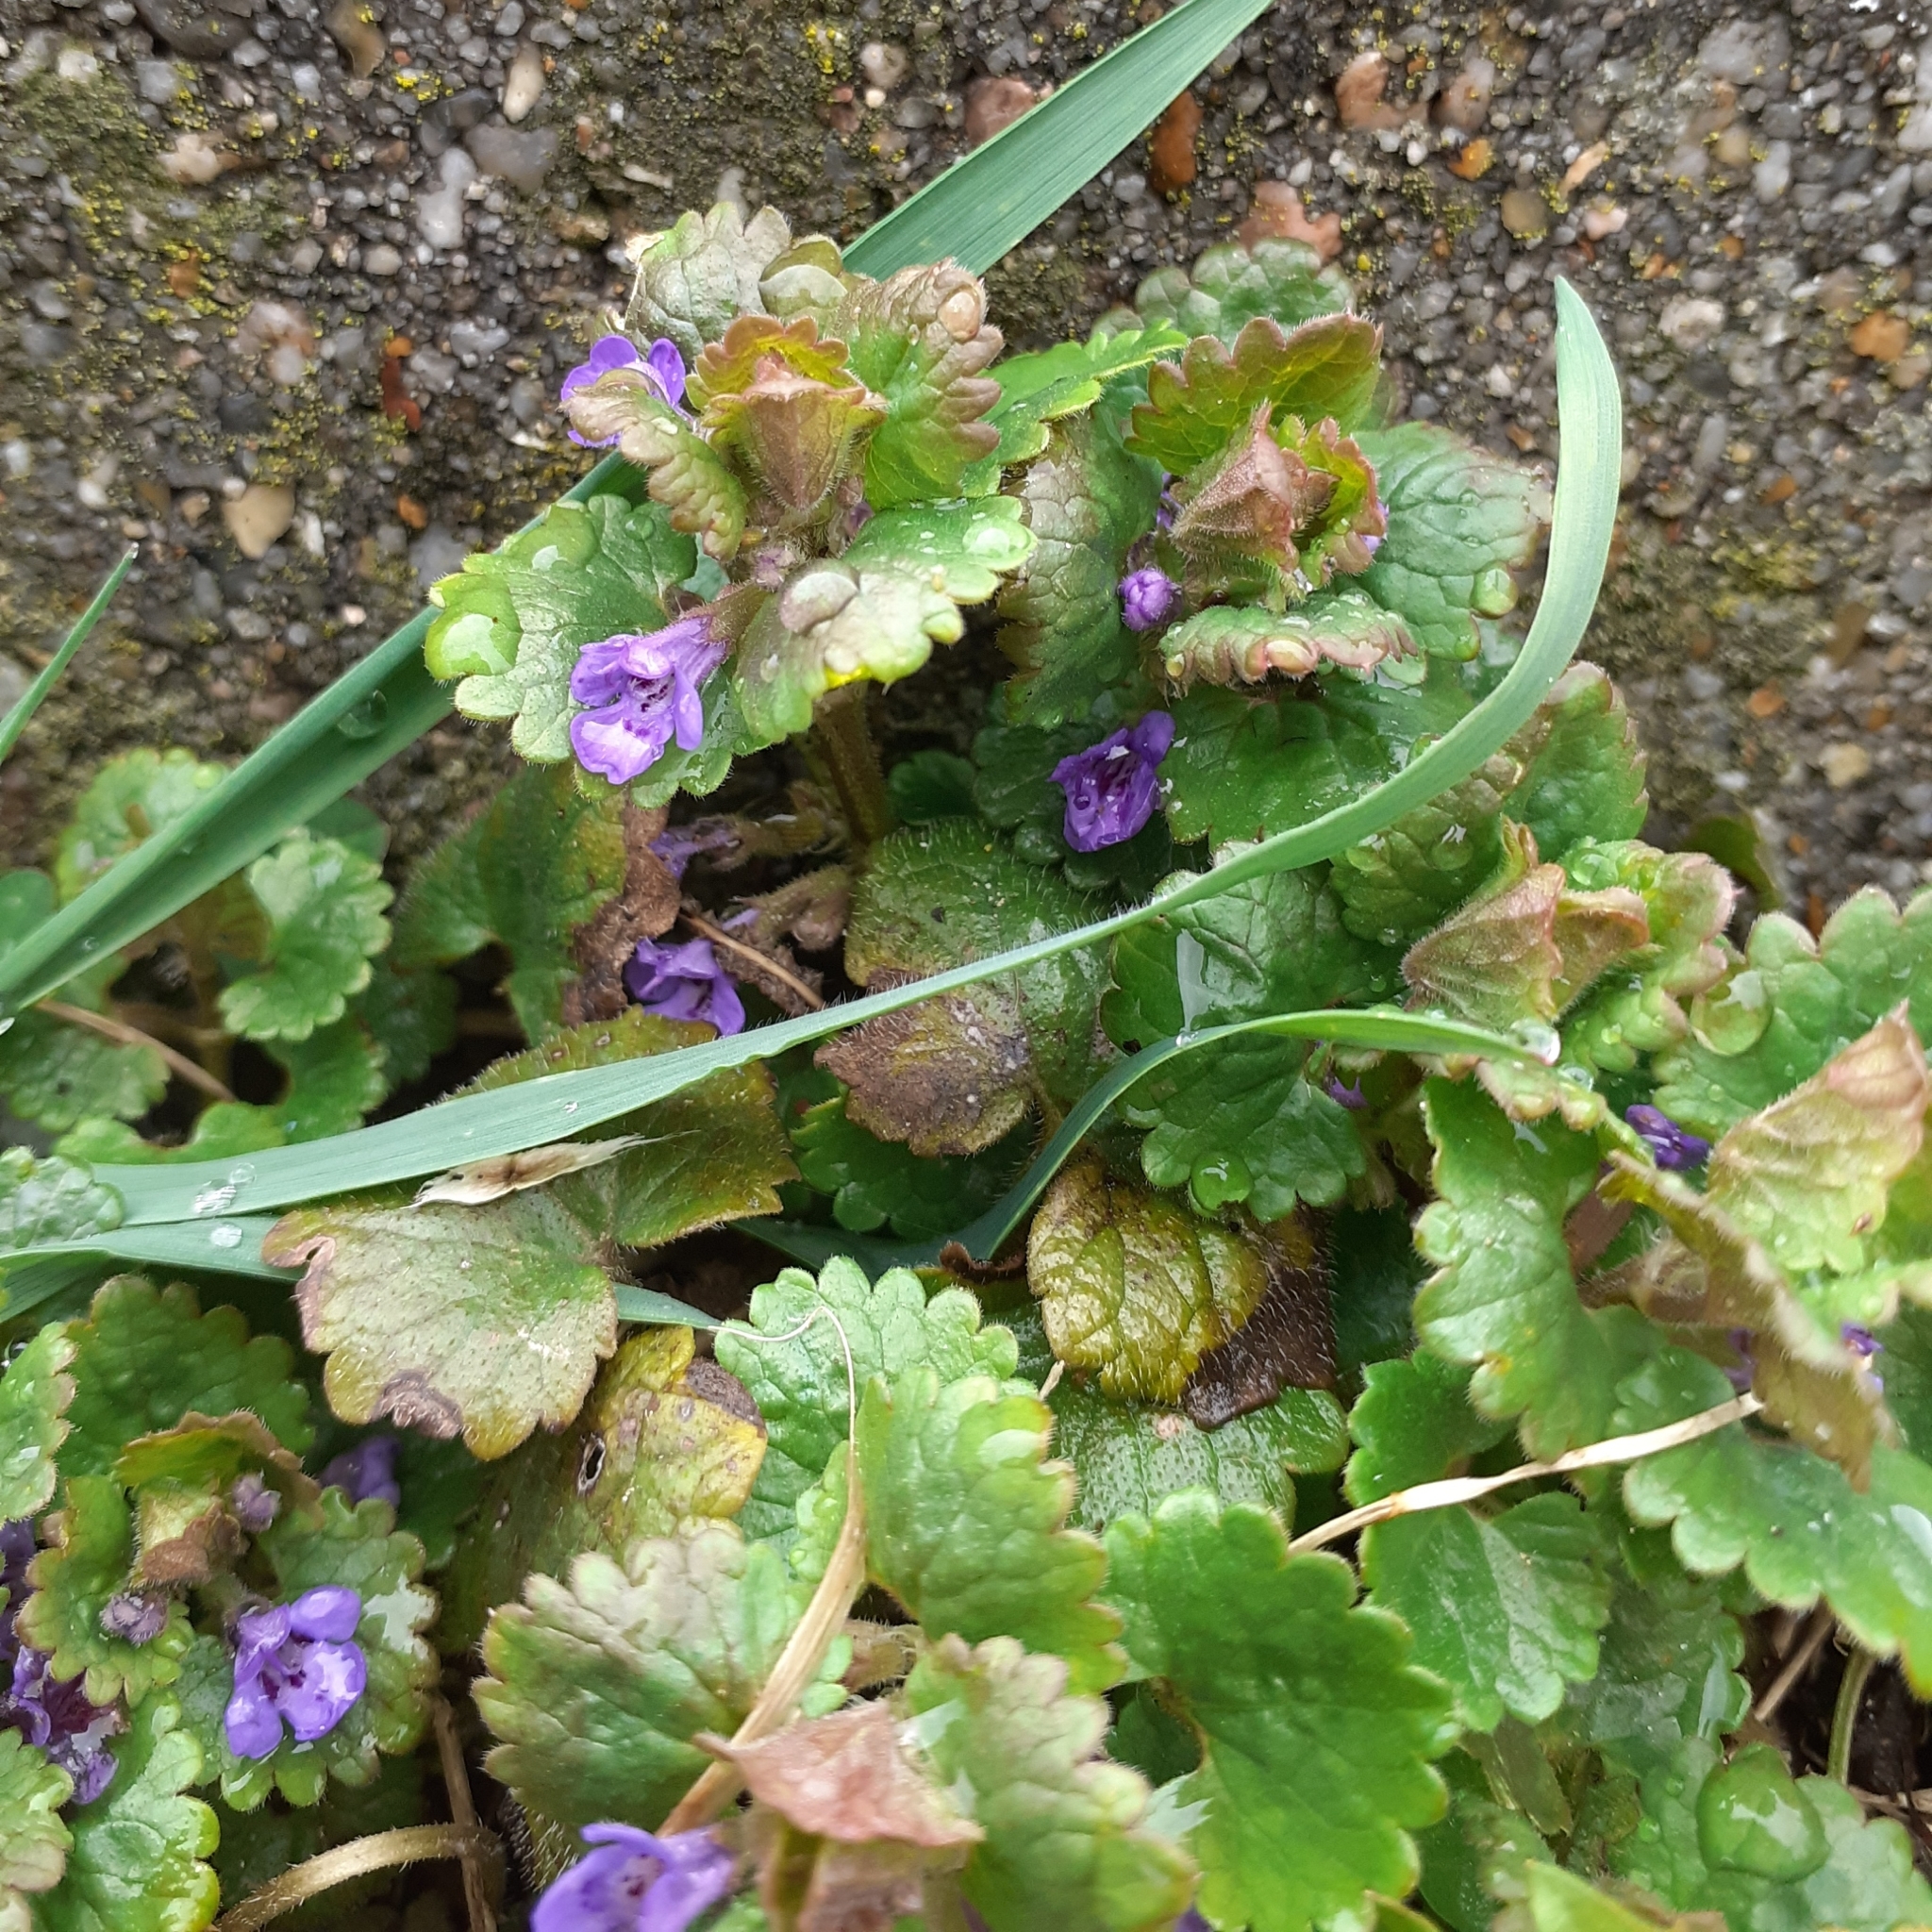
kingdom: Plantae
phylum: Tracheophyta
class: Magnoliopsida
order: Lamiales
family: Lamiaceae
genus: Glechoma
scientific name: Glechoma hederacea
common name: Ground ivy
